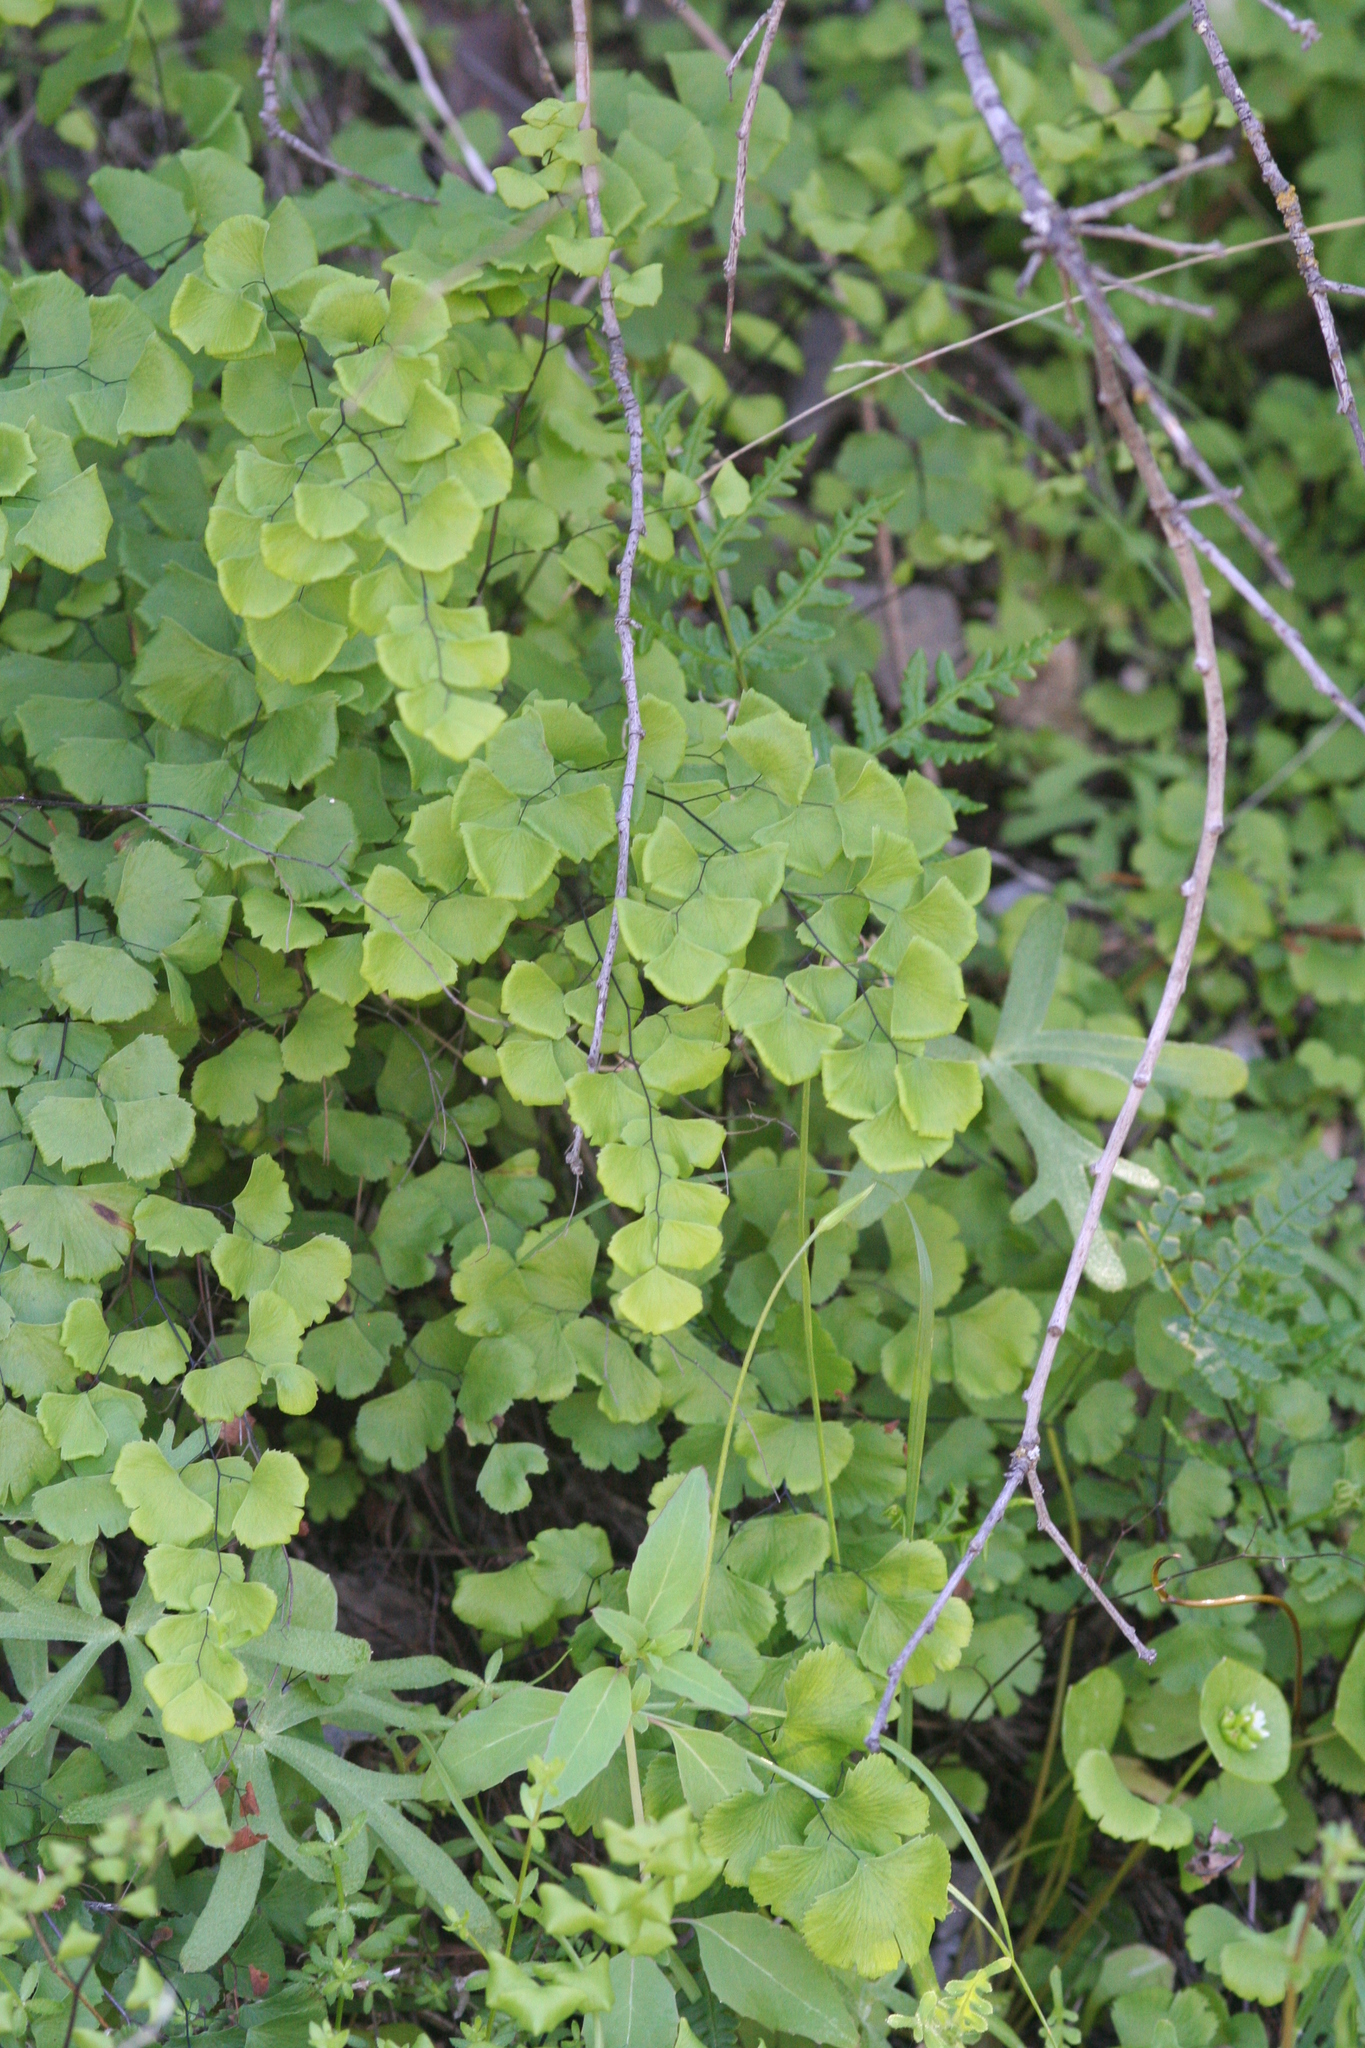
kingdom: Plantae
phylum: Tracheophyta
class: Polypodiopsida
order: Polypodiales
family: Pteridaceae
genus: Adiantum
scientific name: Adiantum jordanii
